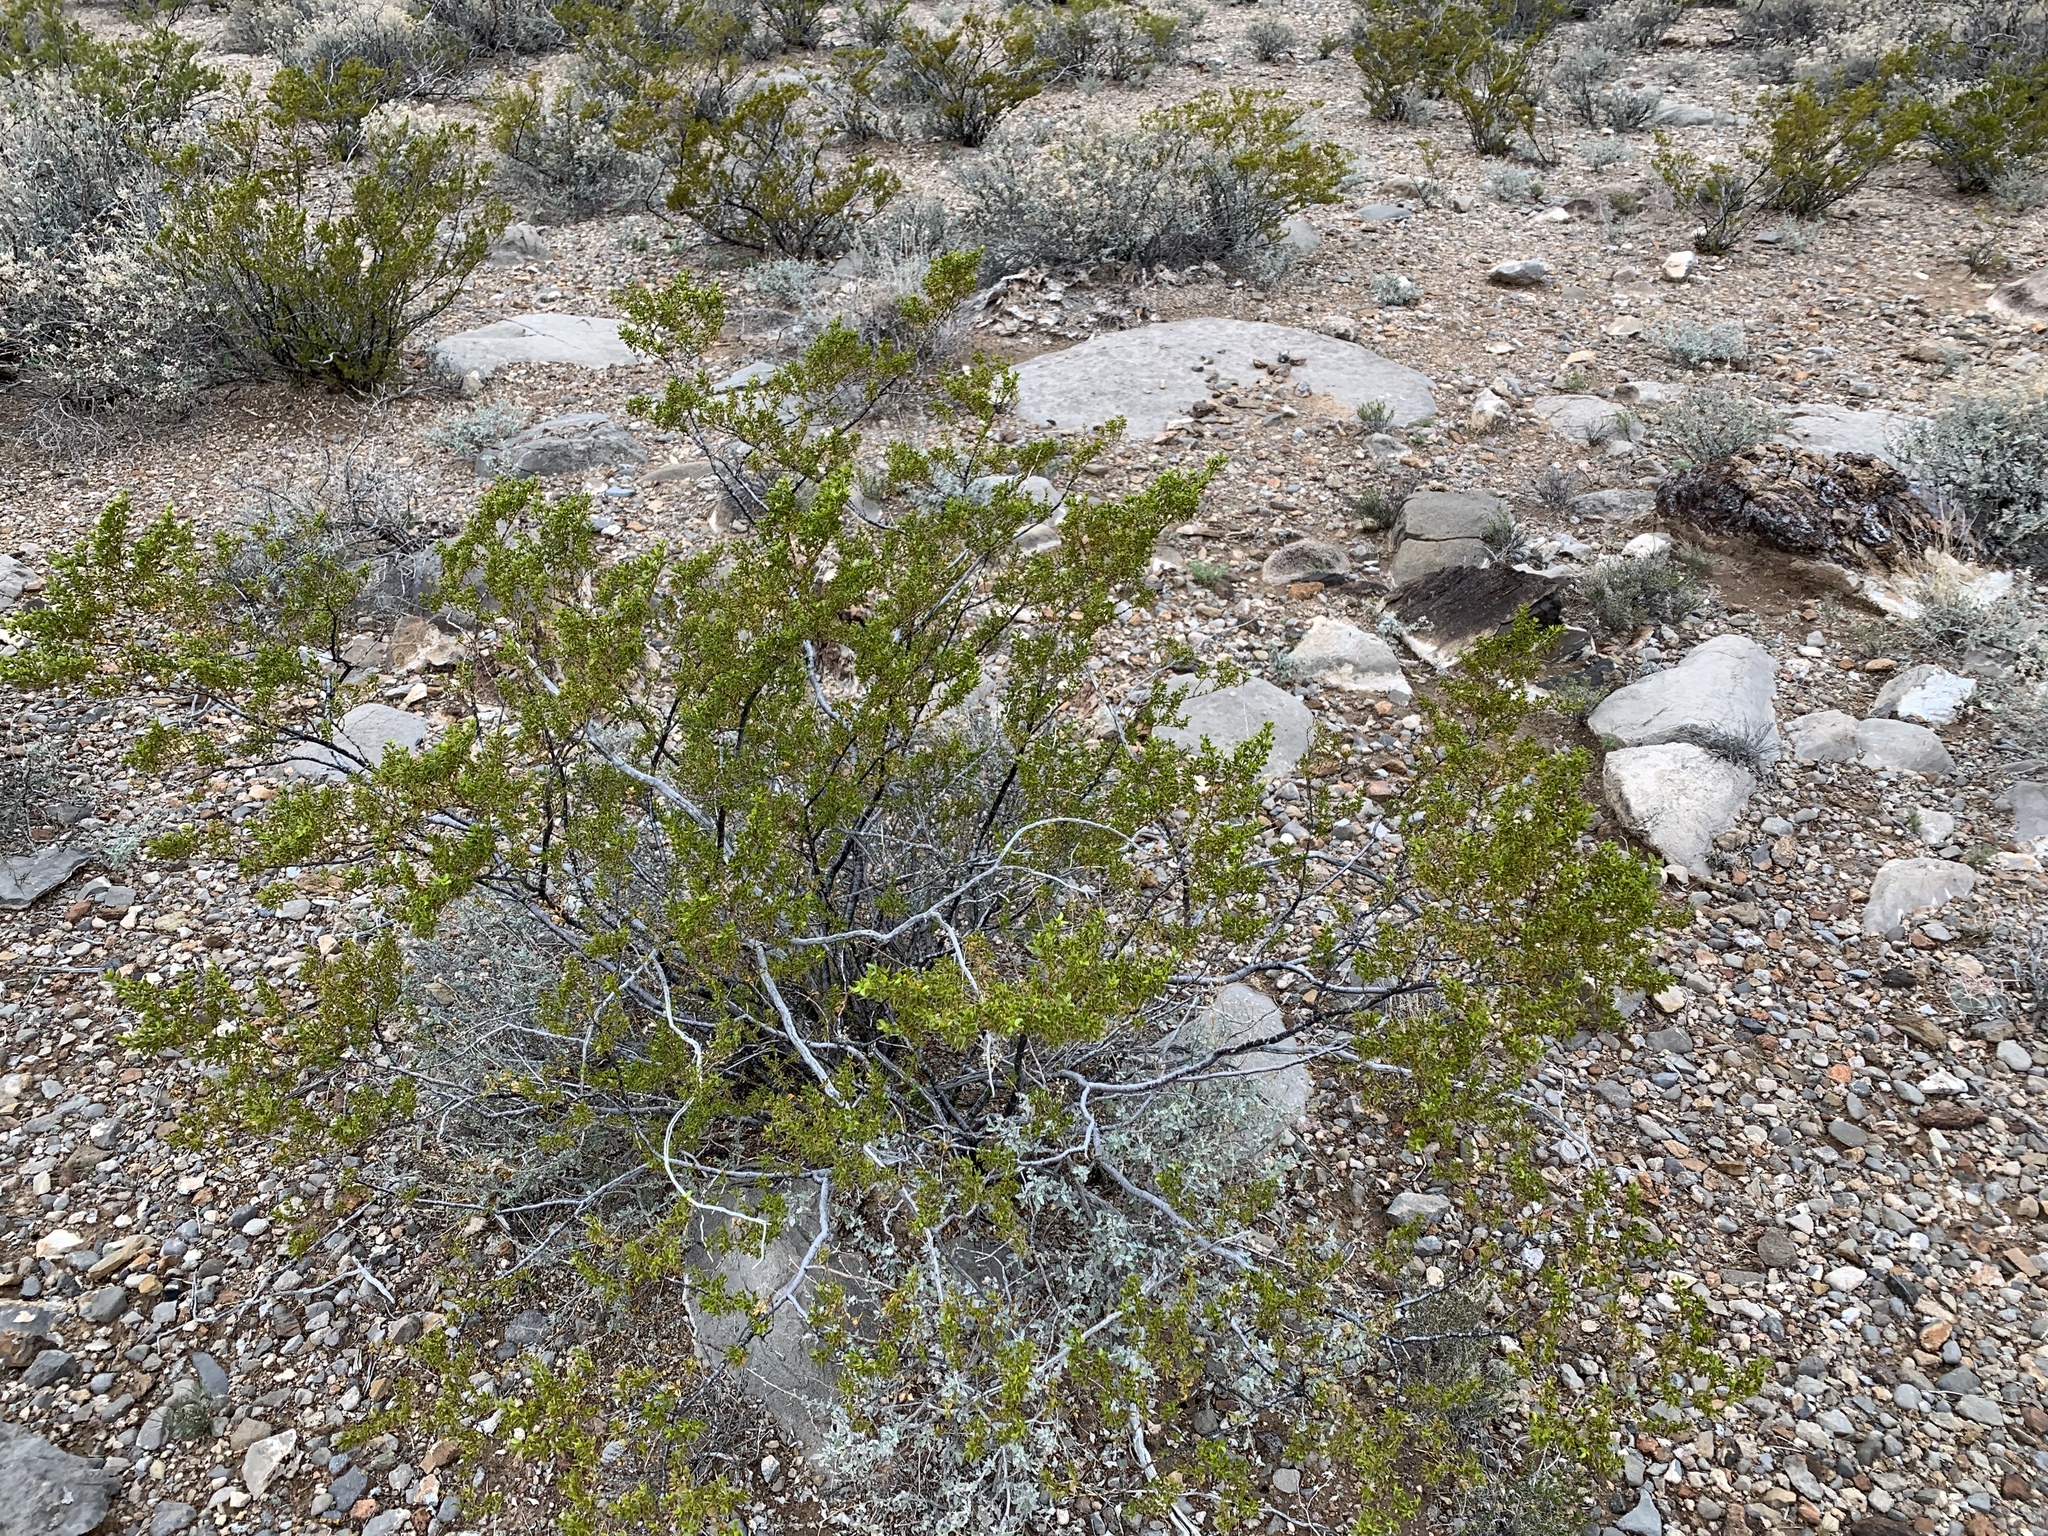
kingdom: Plantae
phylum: Tracheophyta
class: Magnoliopsida
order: Zygophyllales
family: Zygophyllaceae
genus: Larrea
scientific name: Larrea tridentata
